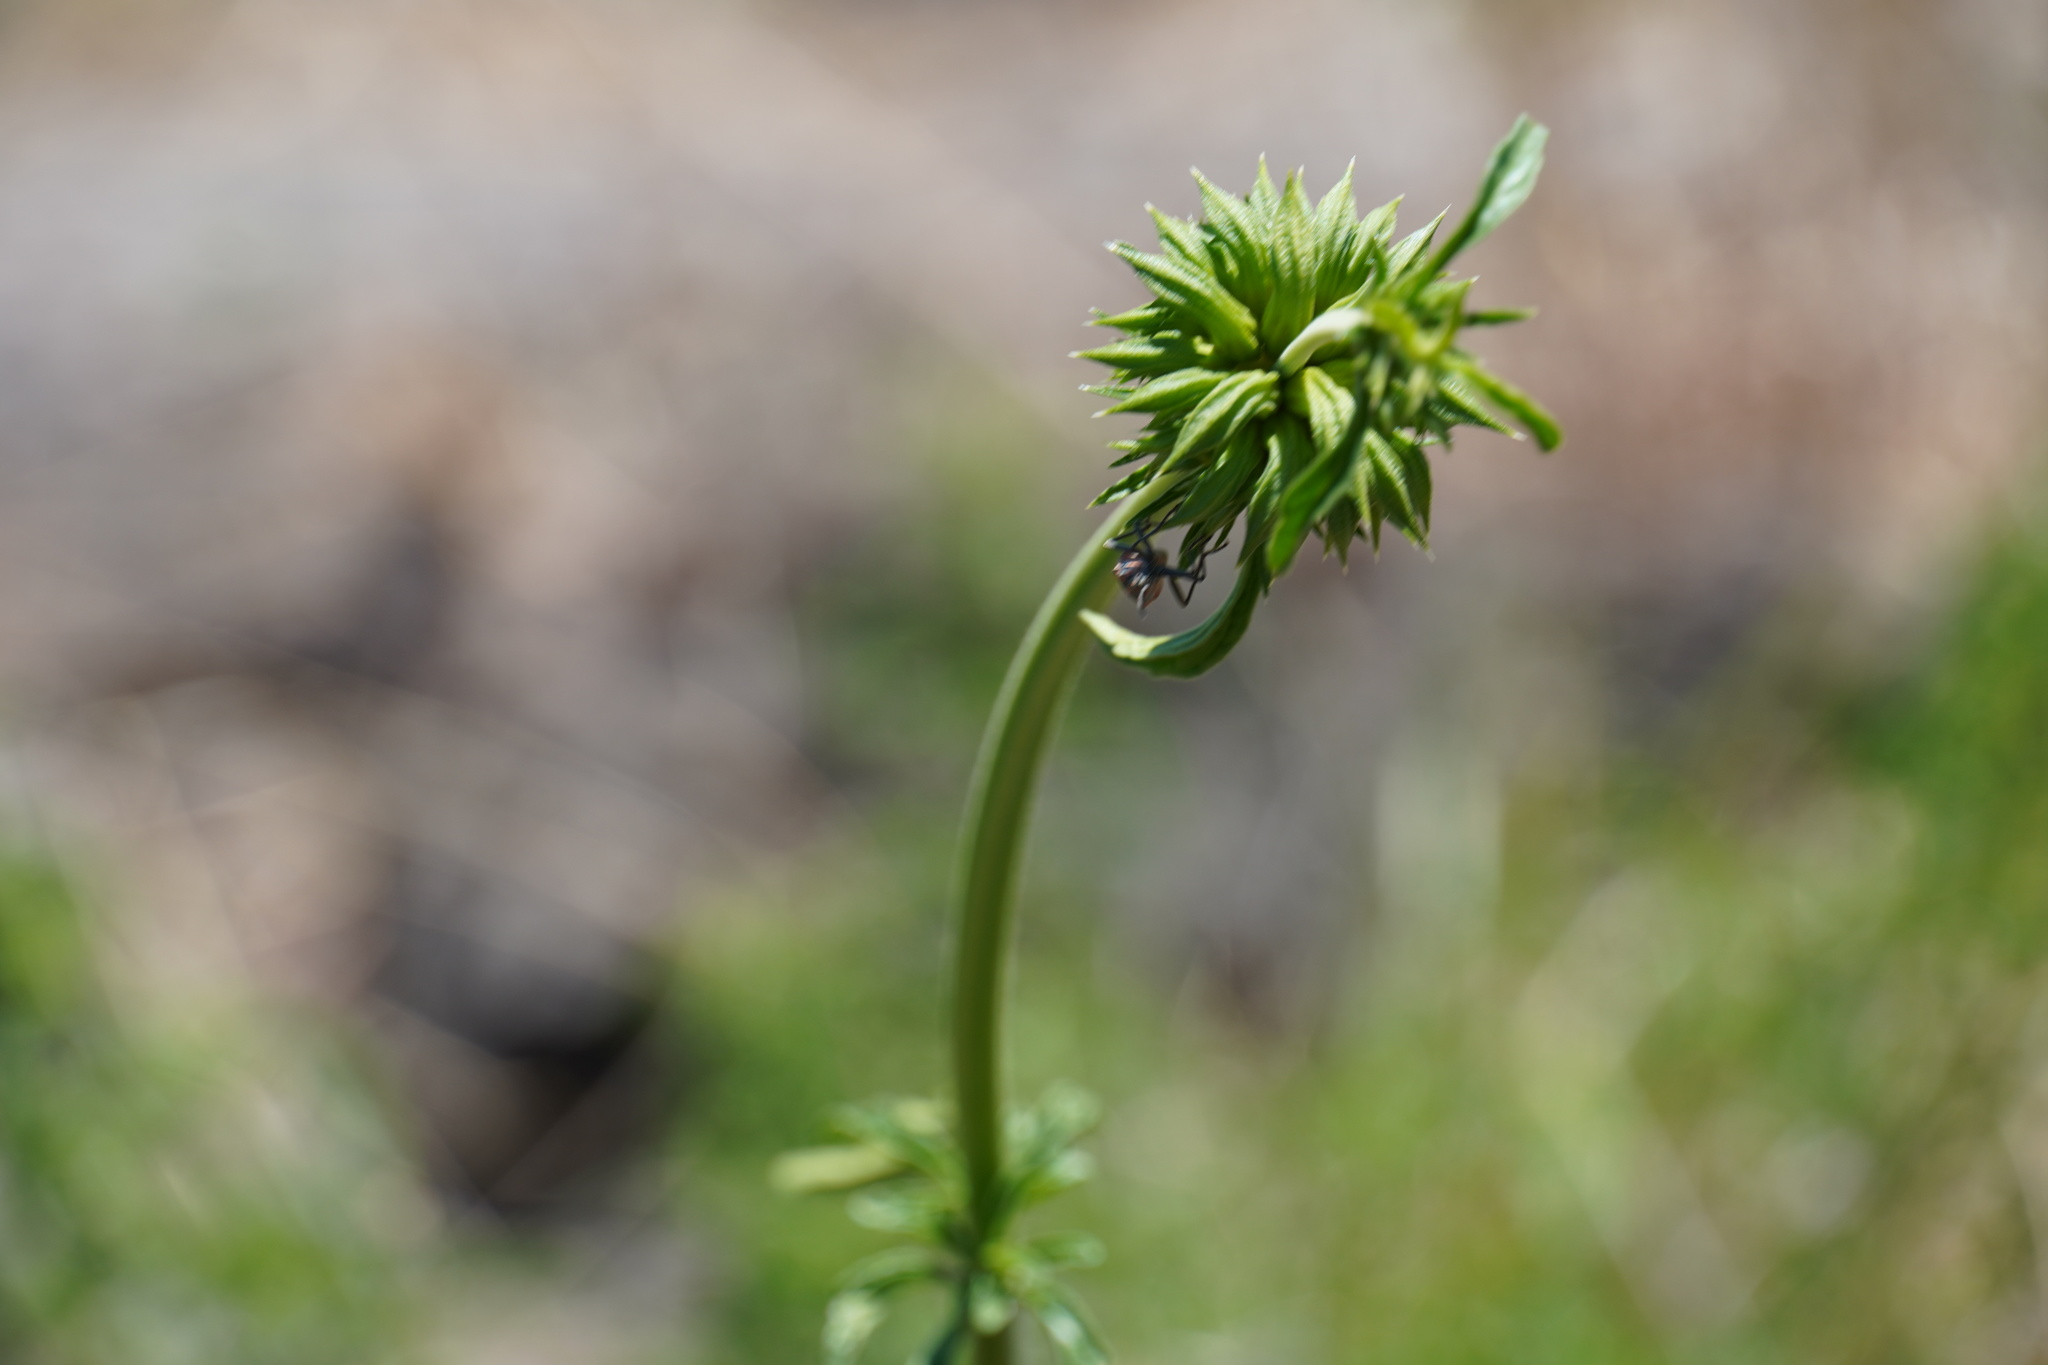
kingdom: Plantae
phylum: Tracheophyta
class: Magnoliopsida
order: Lamiales
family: Lamiaceae
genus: Leonotis
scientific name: Leonotis ocymifolia
